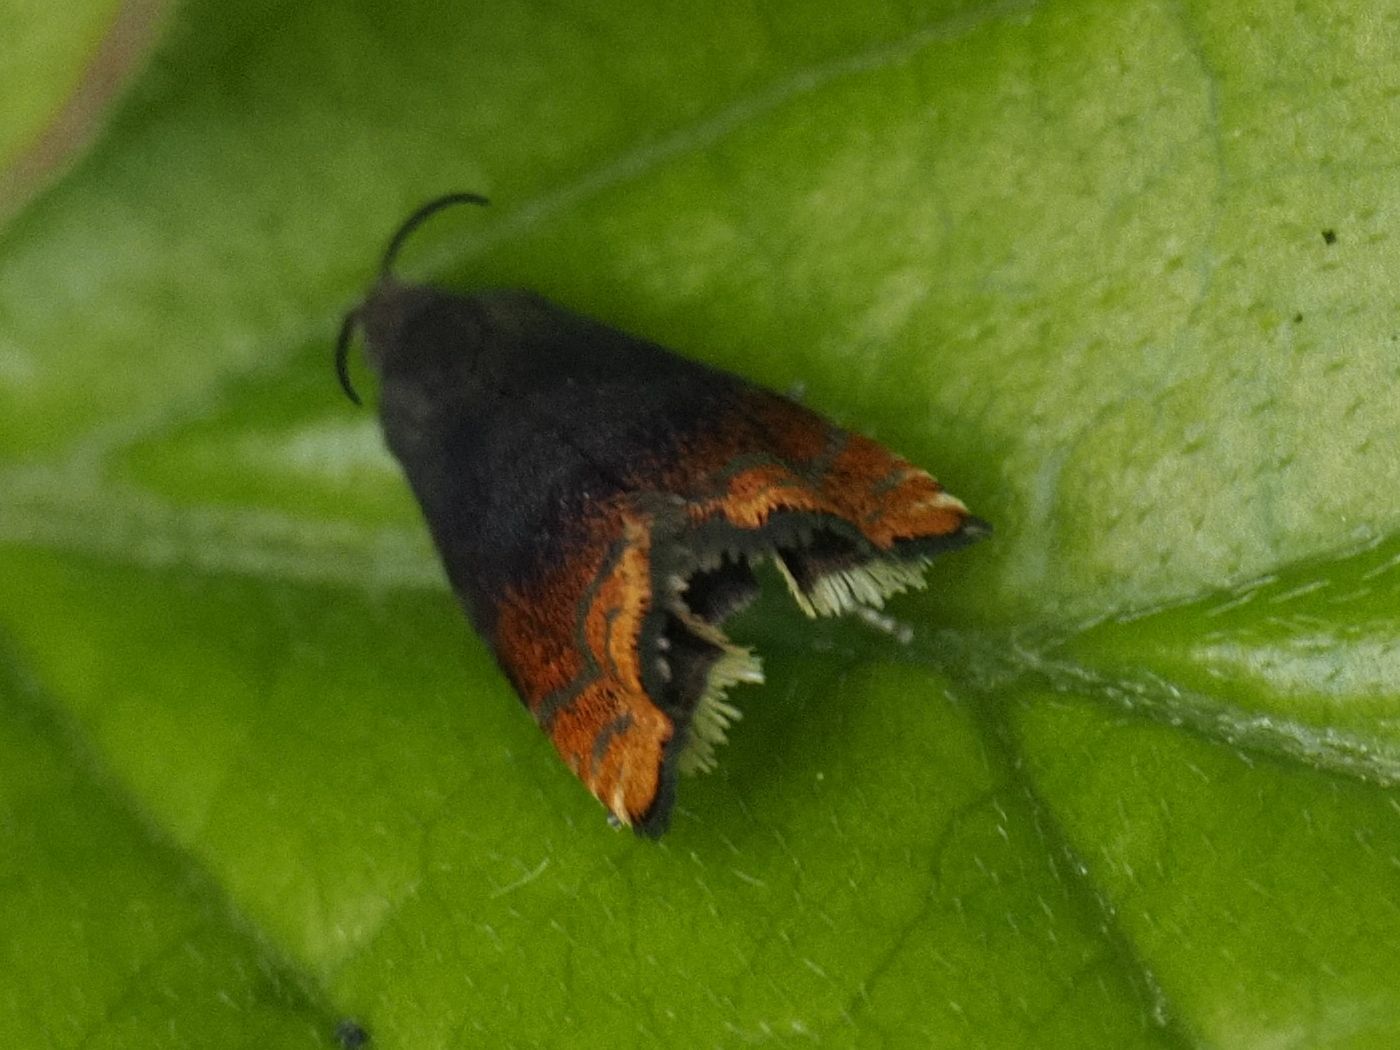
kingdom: Animalia
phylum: Arthropoda
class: Insecta
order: Lepidoptera
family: Tortricidae
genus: Pammene
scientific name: Pammene rhediella
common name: Fruitlet-mining tortrix
